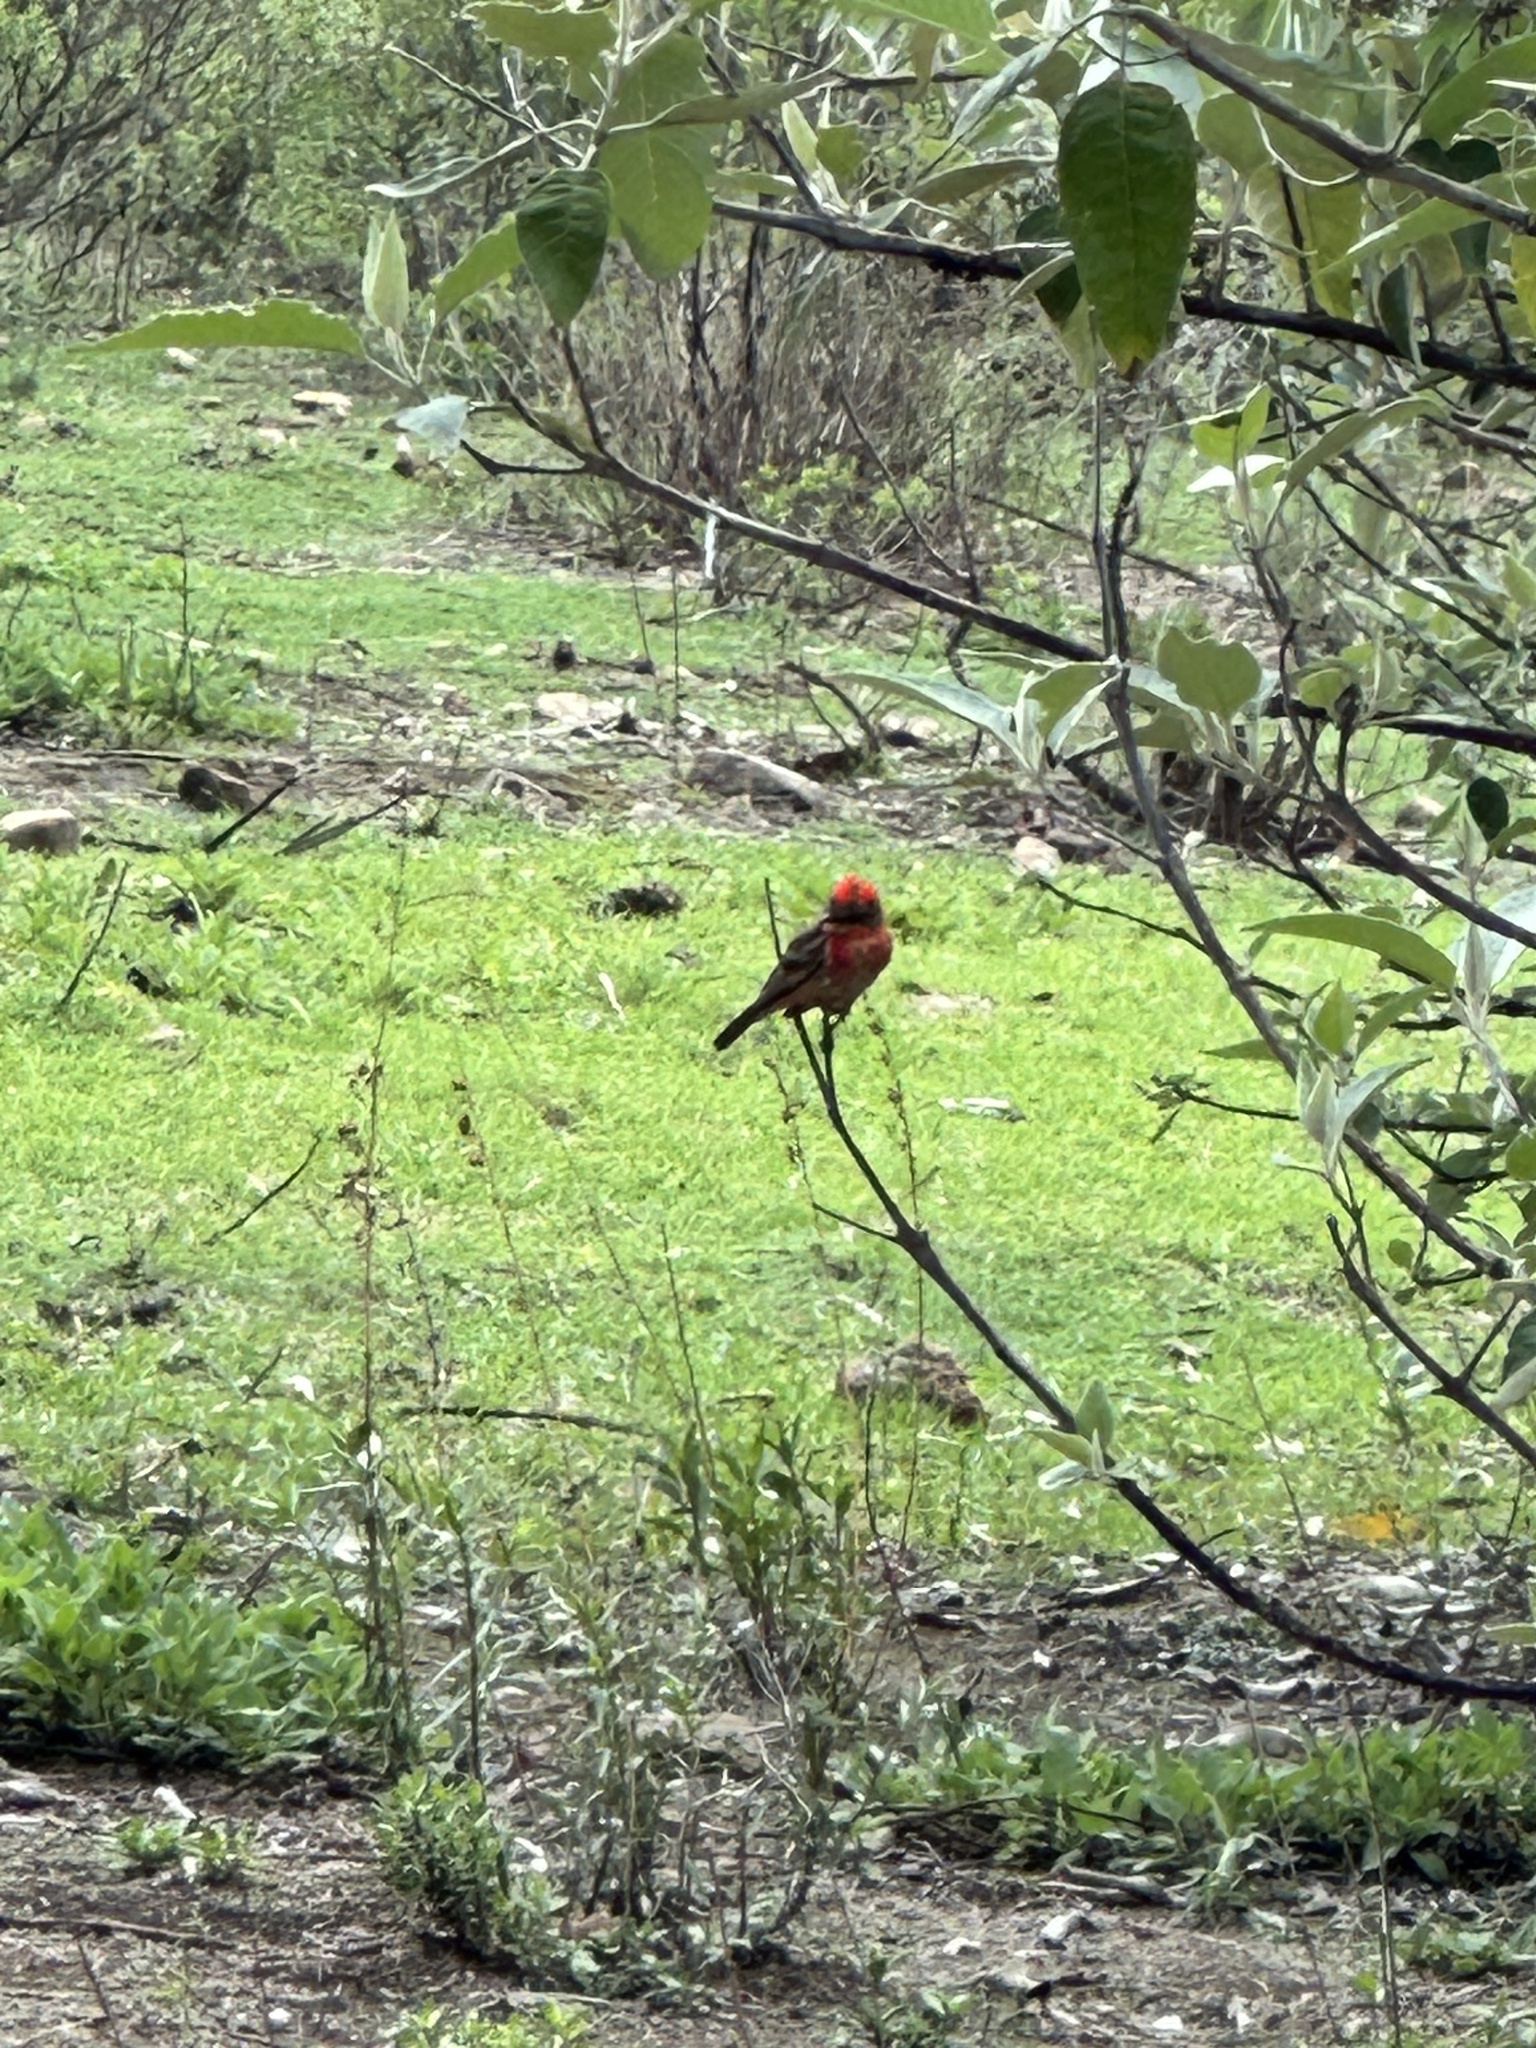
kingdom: Animalia
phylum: Chordata
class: Aves
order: Passeriformes
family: Tyrannidae
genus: Pyrocephalus
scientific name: Pyrocephalus rubinus
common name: Vermilion flycatcher
